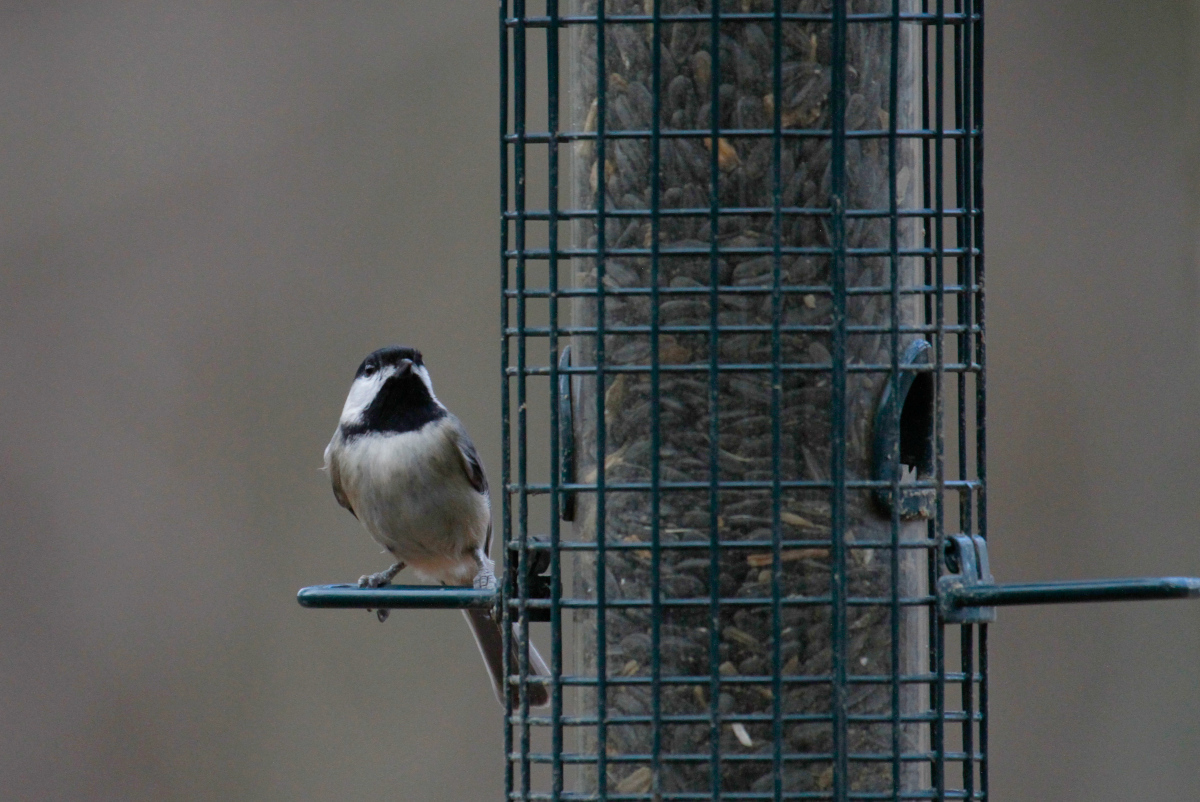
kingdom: Animalia
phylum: Chordata
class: Aves
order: Passeriformes
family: Paridae
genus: Poecile
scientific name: Poecile carolinensis
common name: Carolina chickadee
